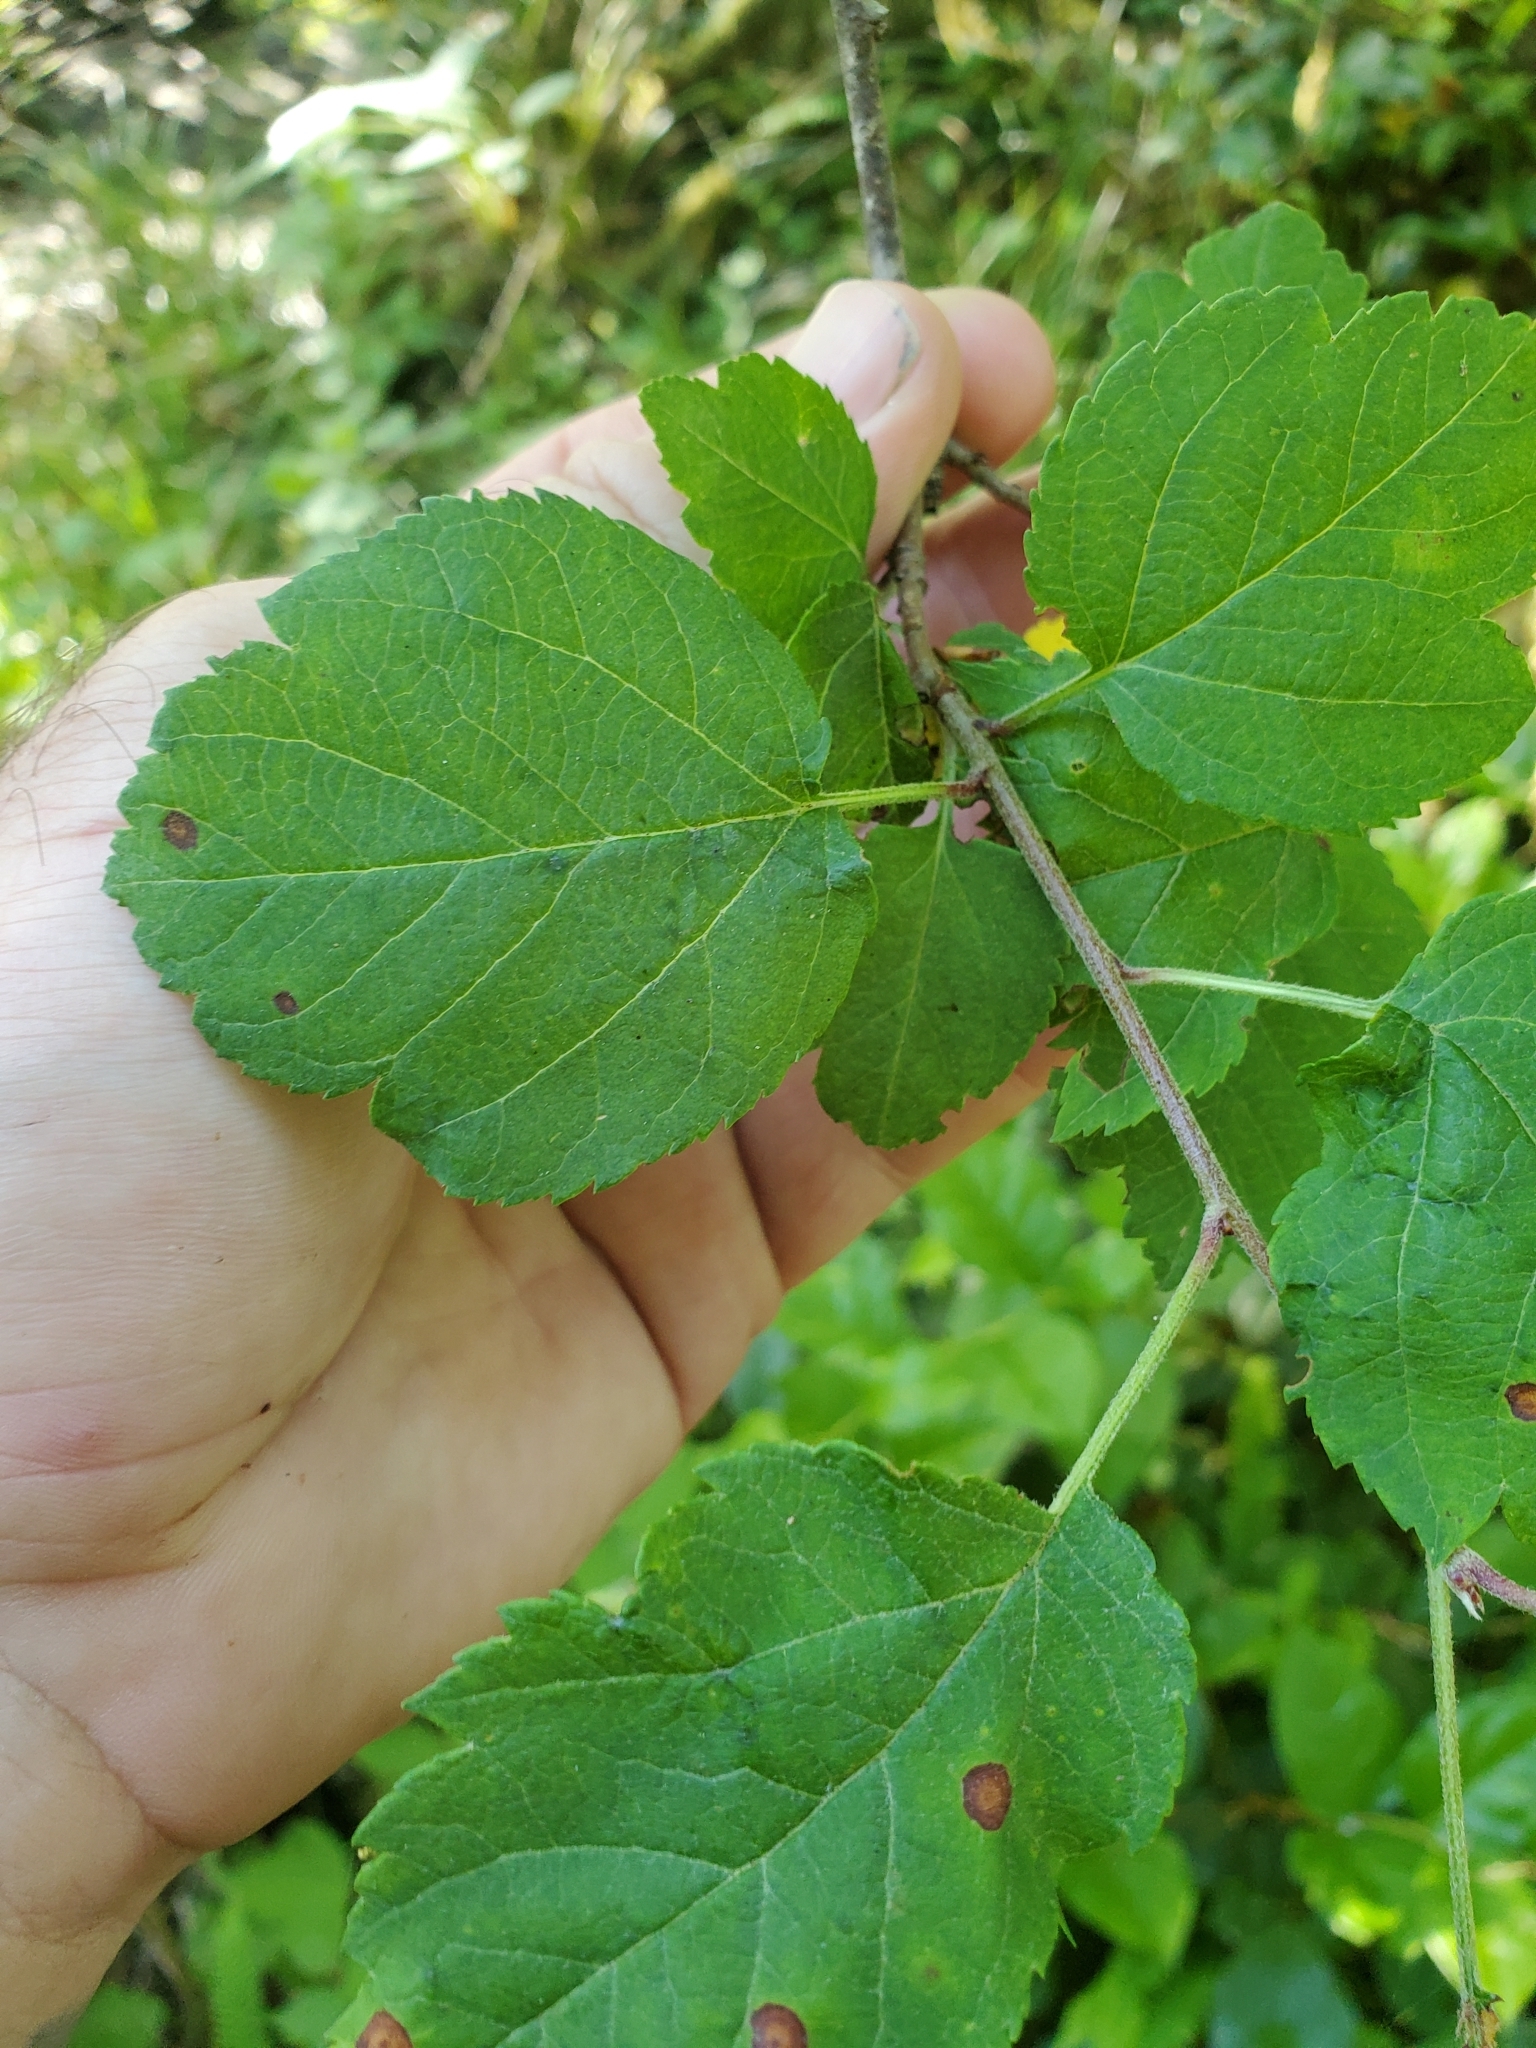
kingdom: Plantae
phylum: Tracheophyta
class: Magnoliopsida
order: Rosales
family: Rosaceae
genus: Malus
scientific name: Malus fusca
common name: Oregon crab apple
